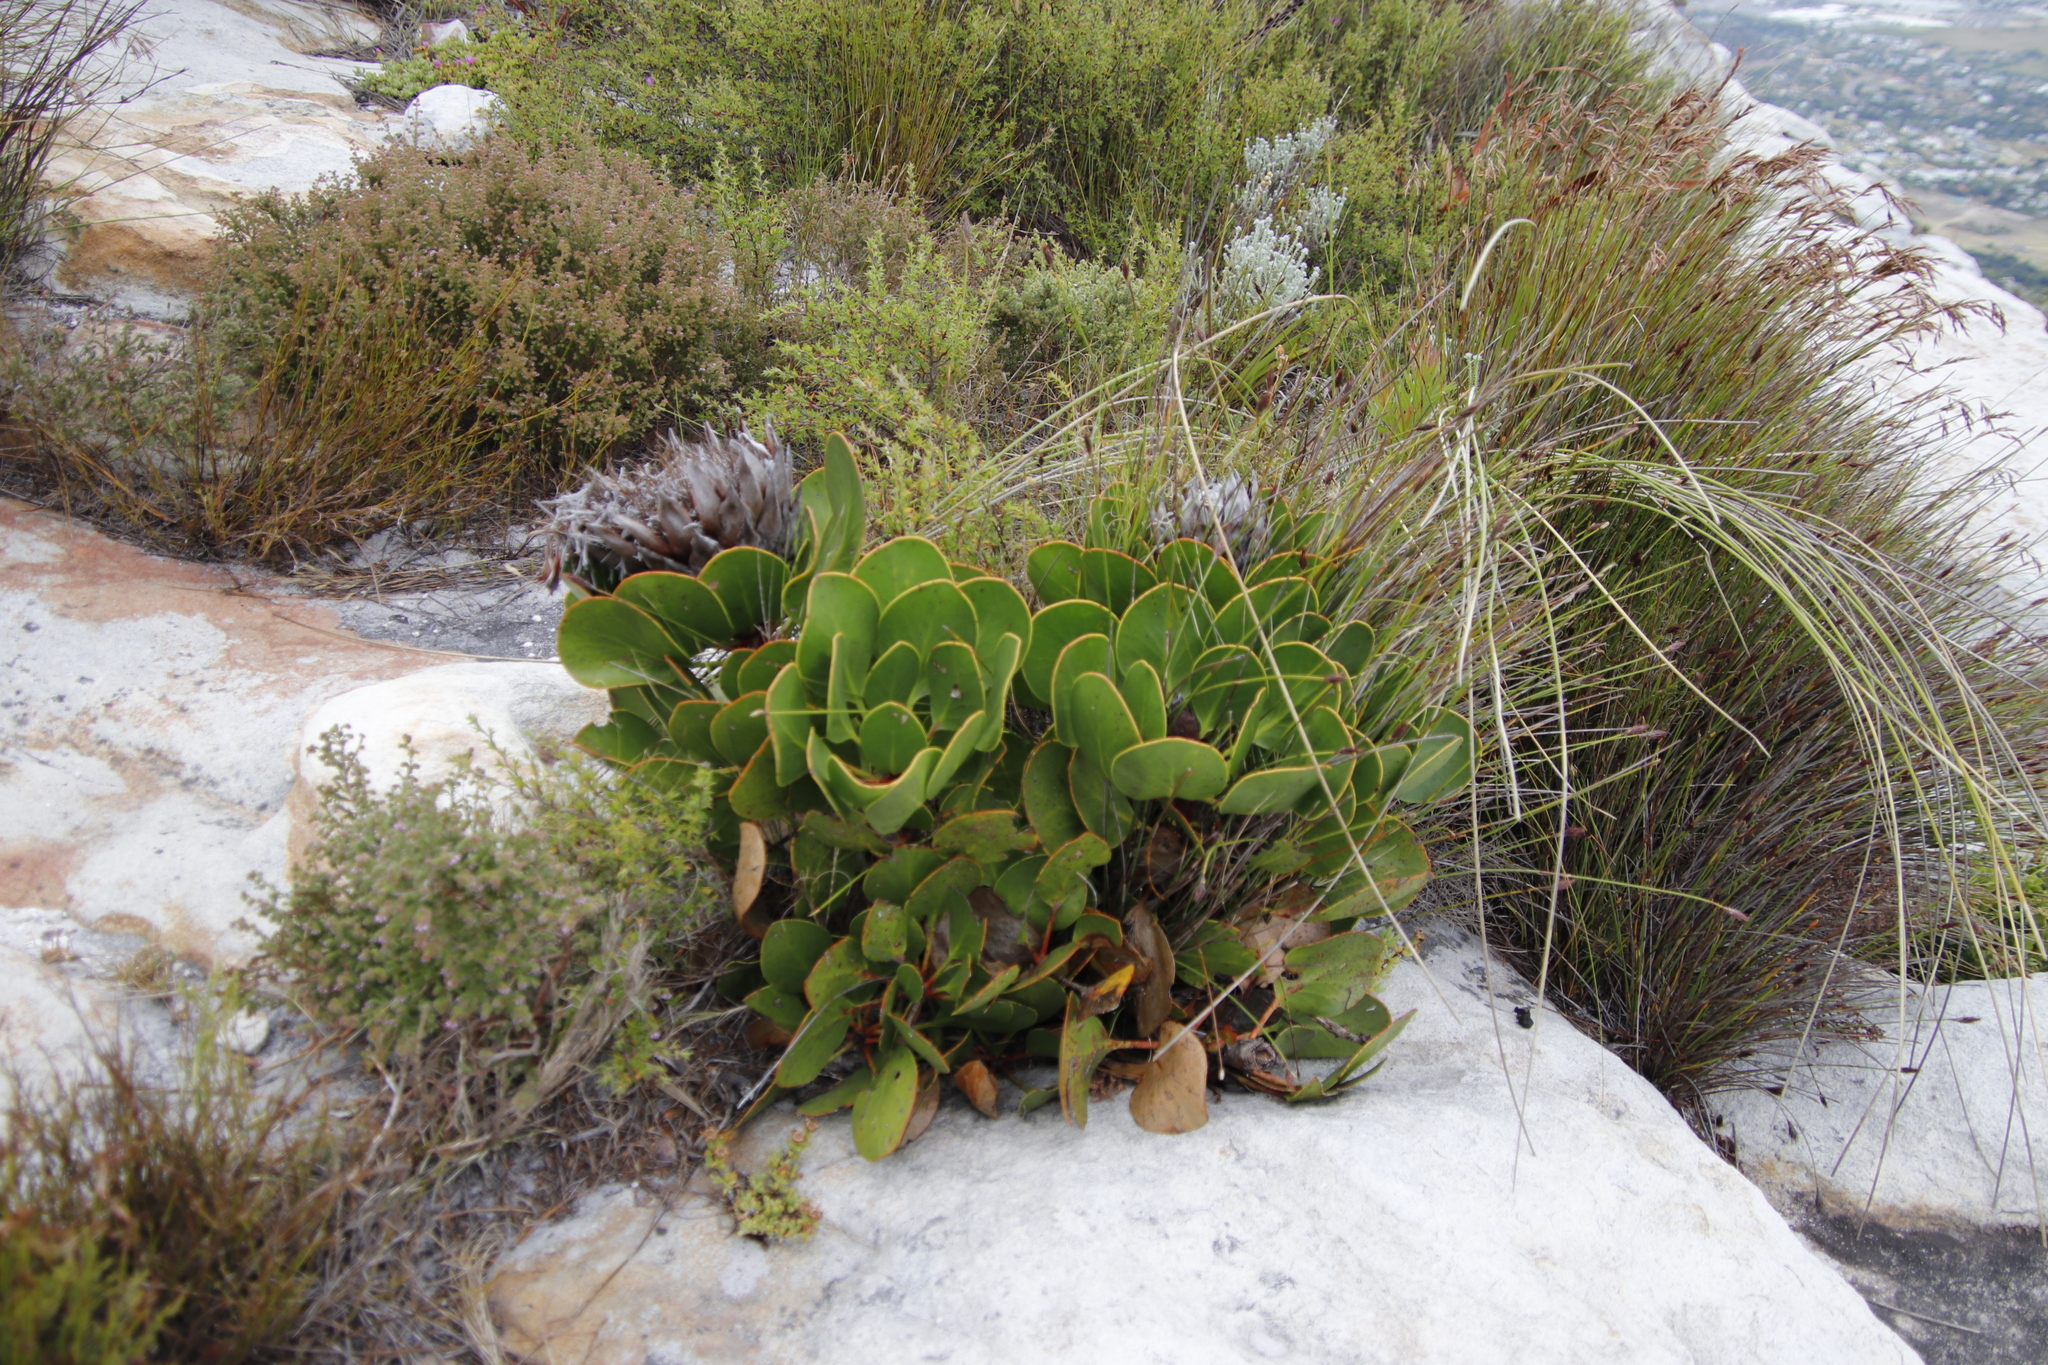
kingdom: Plantae
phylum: Tracheophyta
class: Magnoliopsida
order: Proteales
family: Proteaceae
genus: Protea
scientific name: Protea cynaroides
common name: King protea
